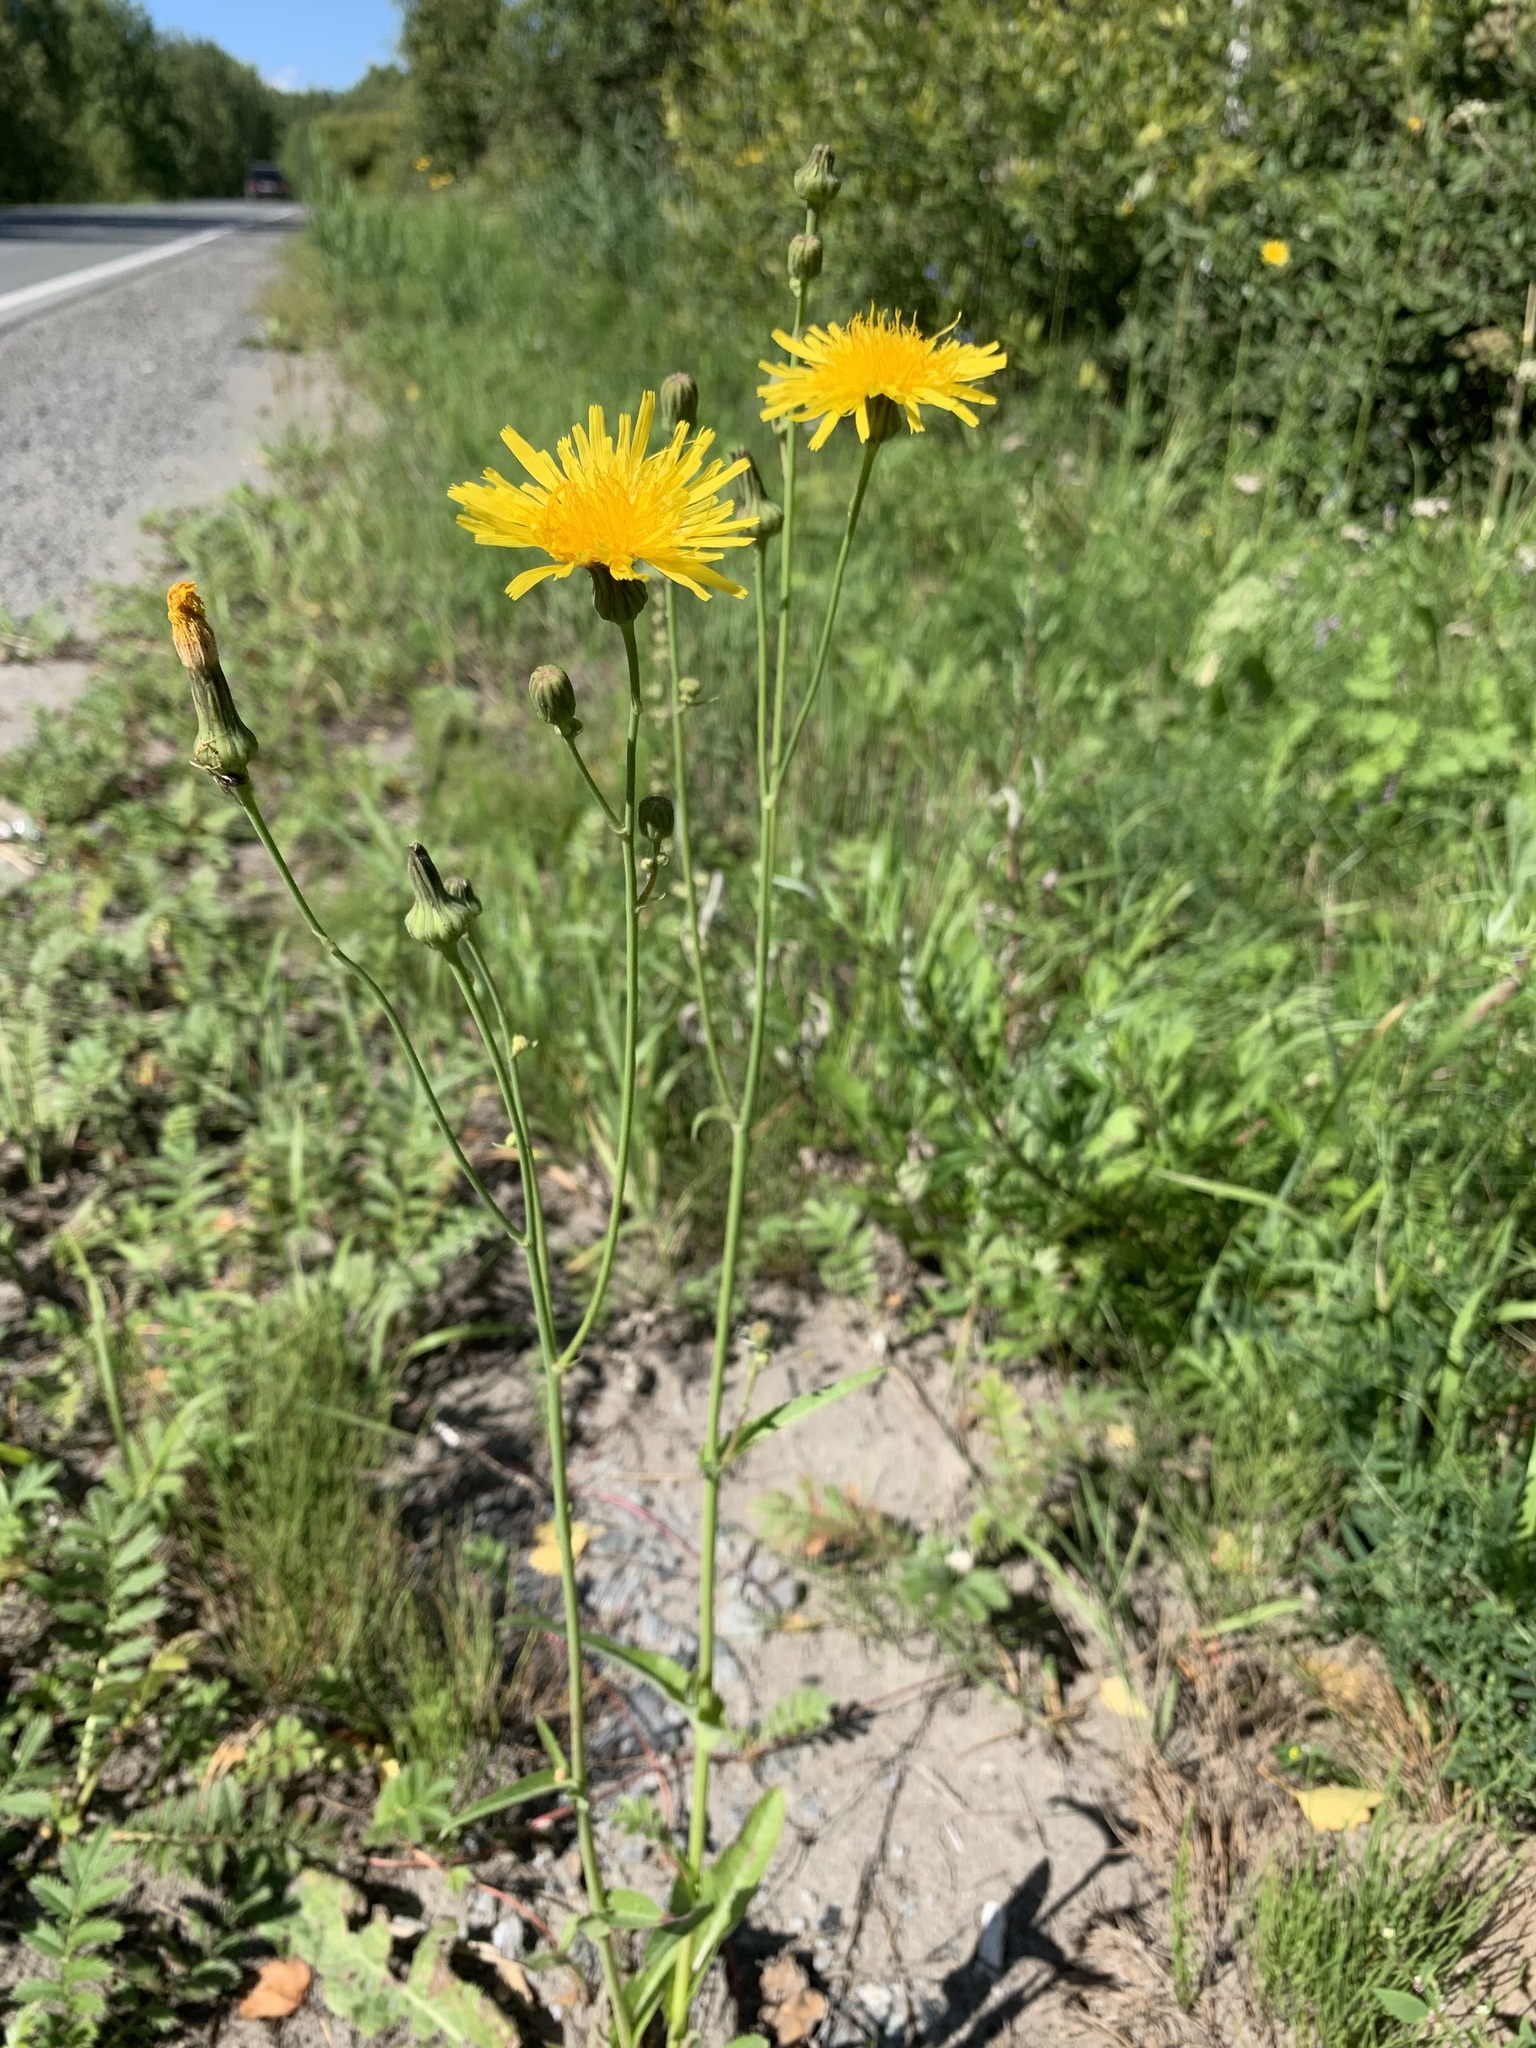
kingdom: Plantae
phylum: Tracheophyta
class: Magnoliopsida
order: Asterales
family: Asteraceae
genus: Sonchus
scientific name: Sonchus arvensis
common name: Perennial sow-thistle
